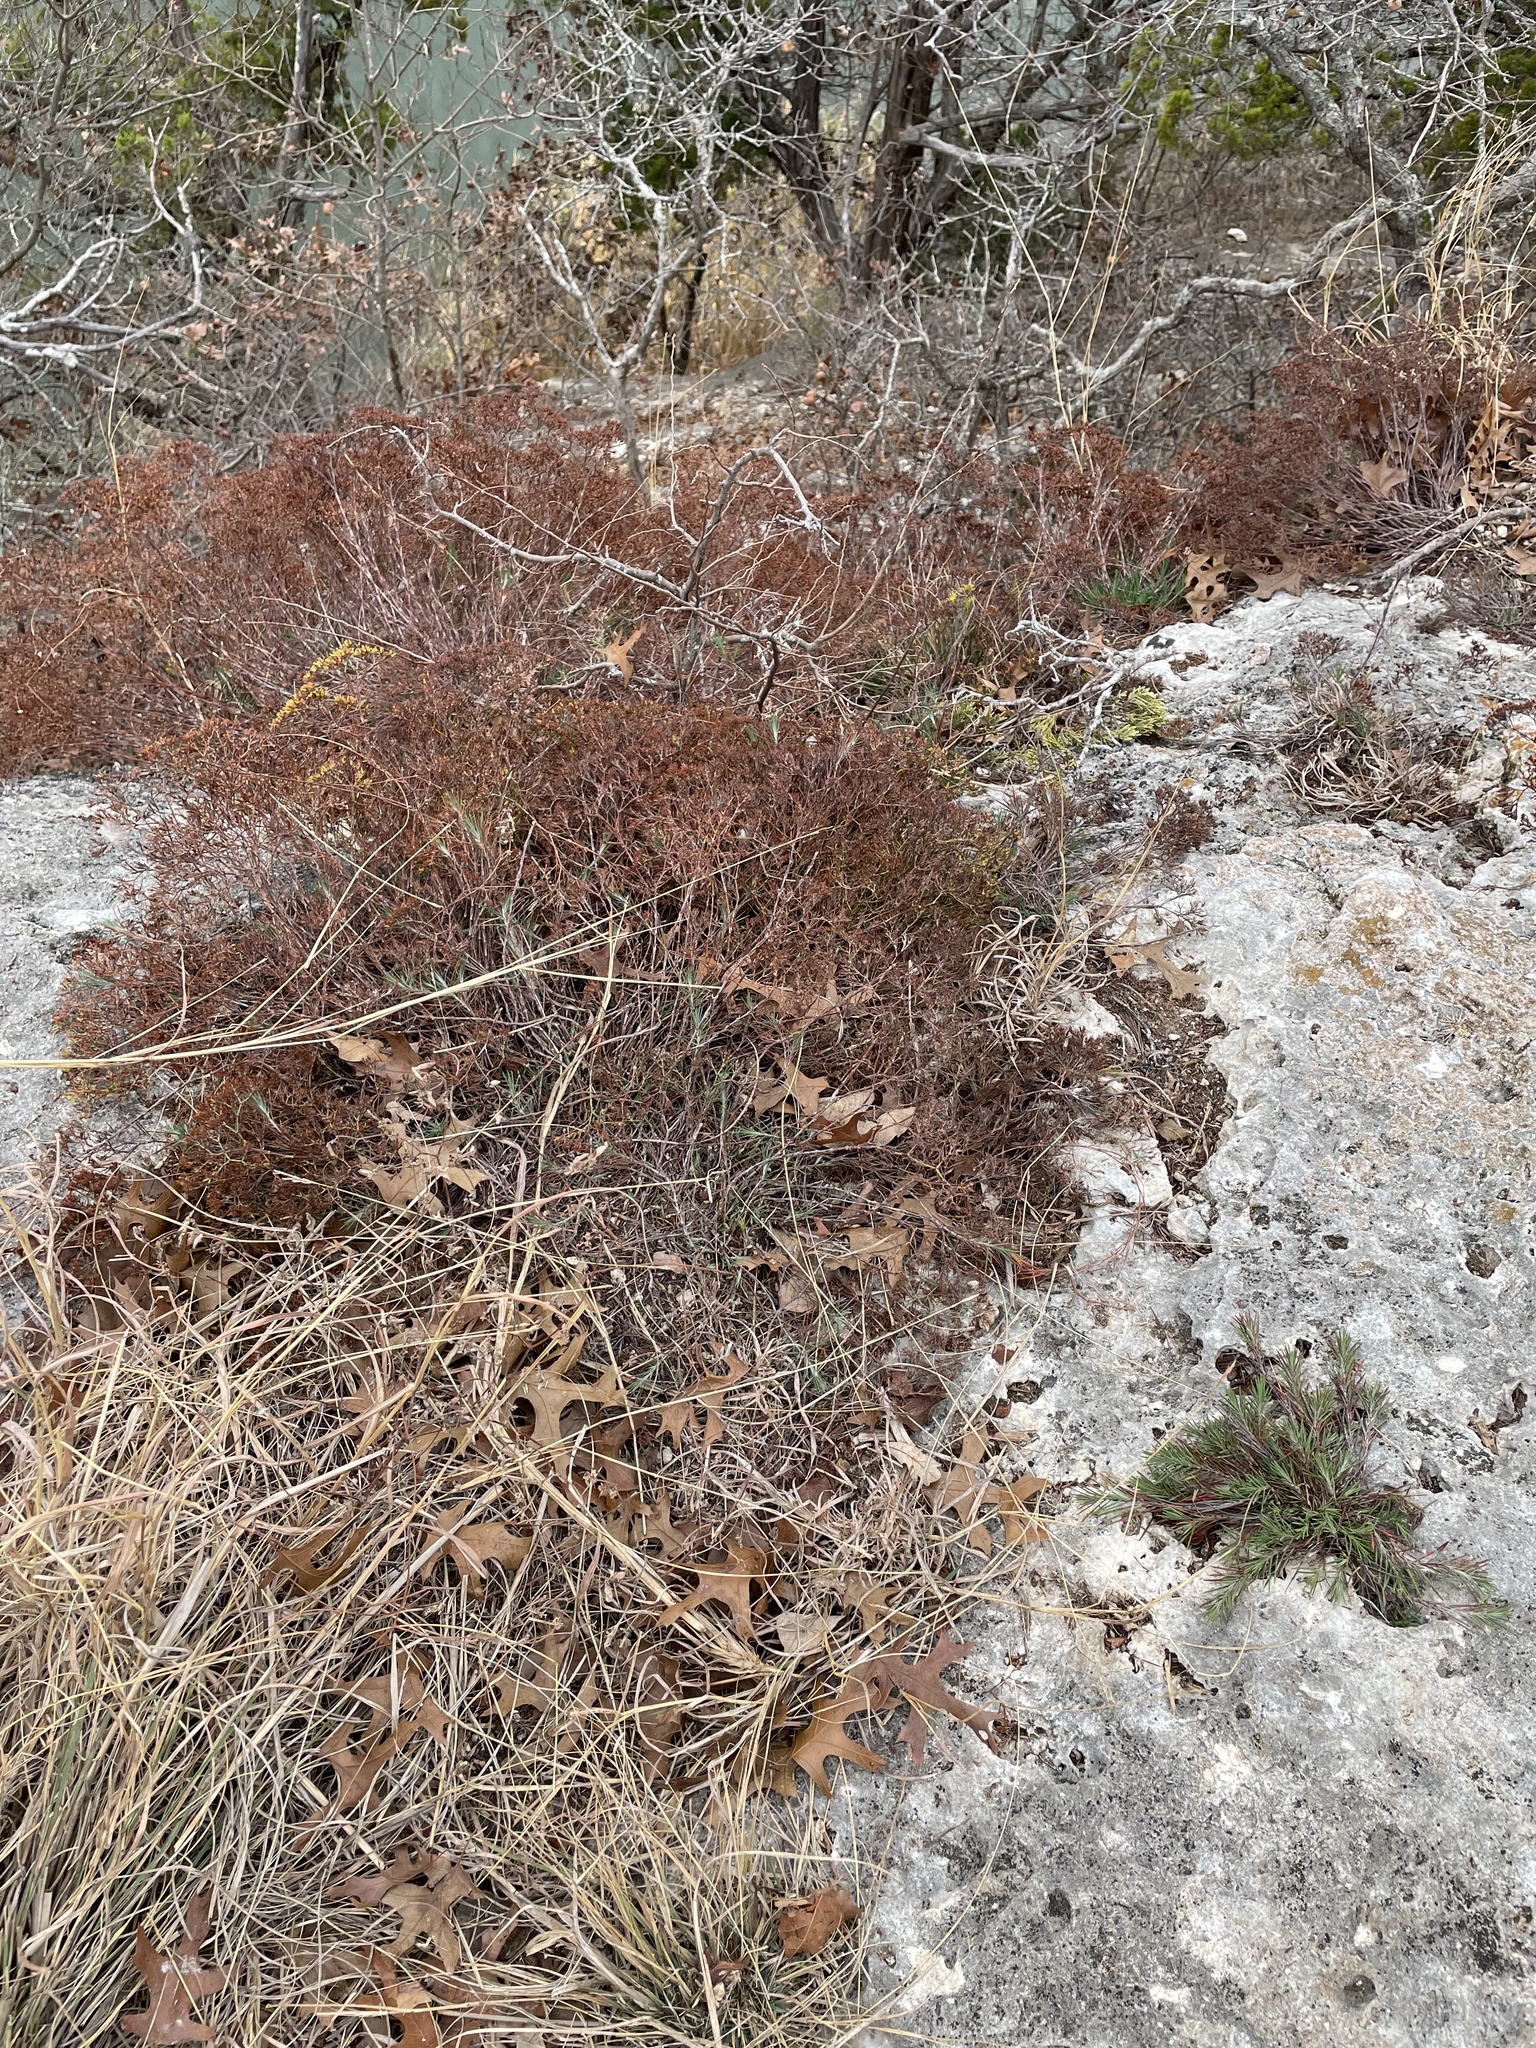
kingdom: Plantae
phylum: Tracheophyta
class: Magnoliopsida
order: Caryophyllales
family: Caryophyllaceae
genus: Paronychia
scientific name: Paronychia virginica
